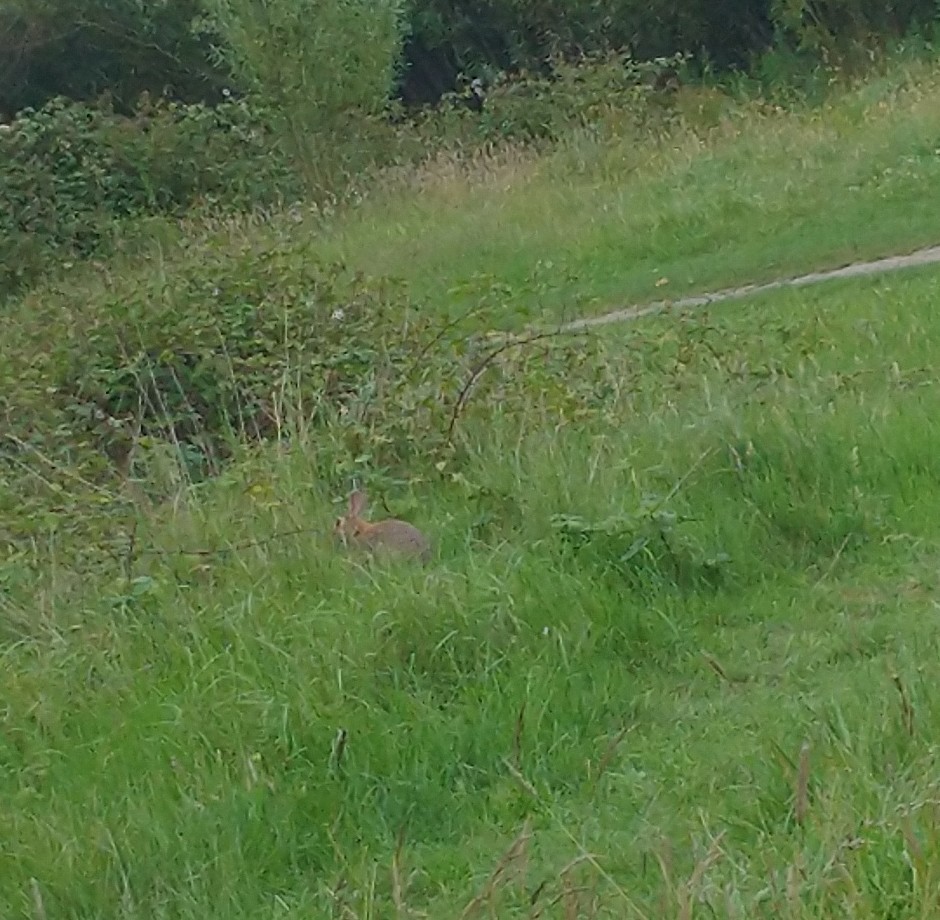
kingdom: Animalia
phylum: Chordata
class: Mammalia
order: Lagomorpha
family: Leporidae
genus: Oryctolagus
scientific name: Oryctolagus cuniculus
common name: European rabbit
